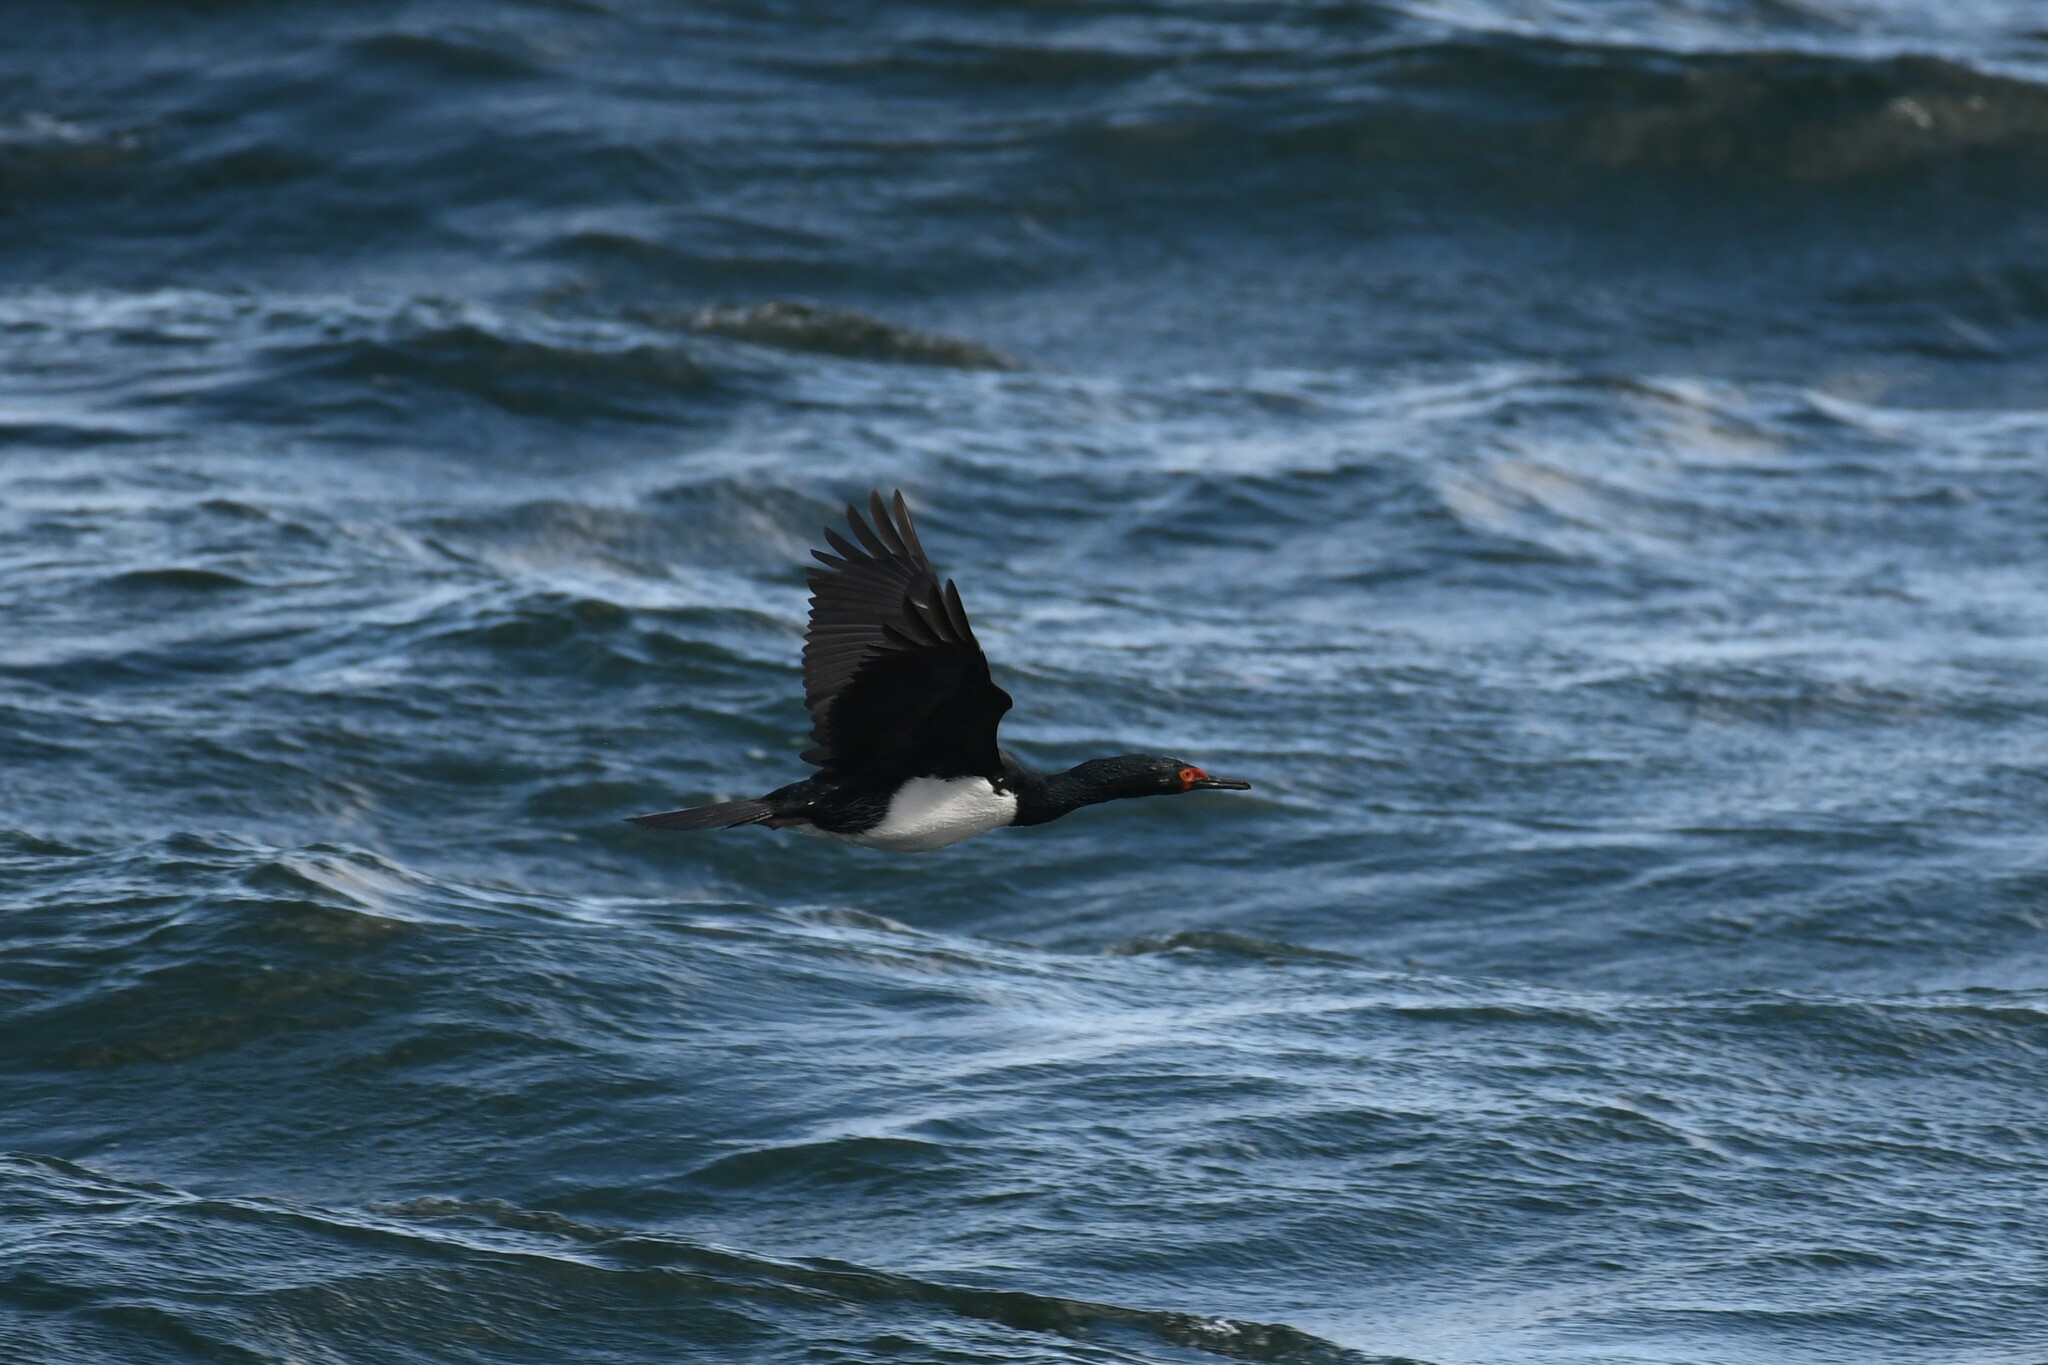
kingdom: Animalia
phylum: Chordata
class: Aves
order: Suliformes
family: Phalacrocoracidae
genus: Phalacrocorax
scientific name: Phalacrocorax magellanicus
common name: Rock shag
